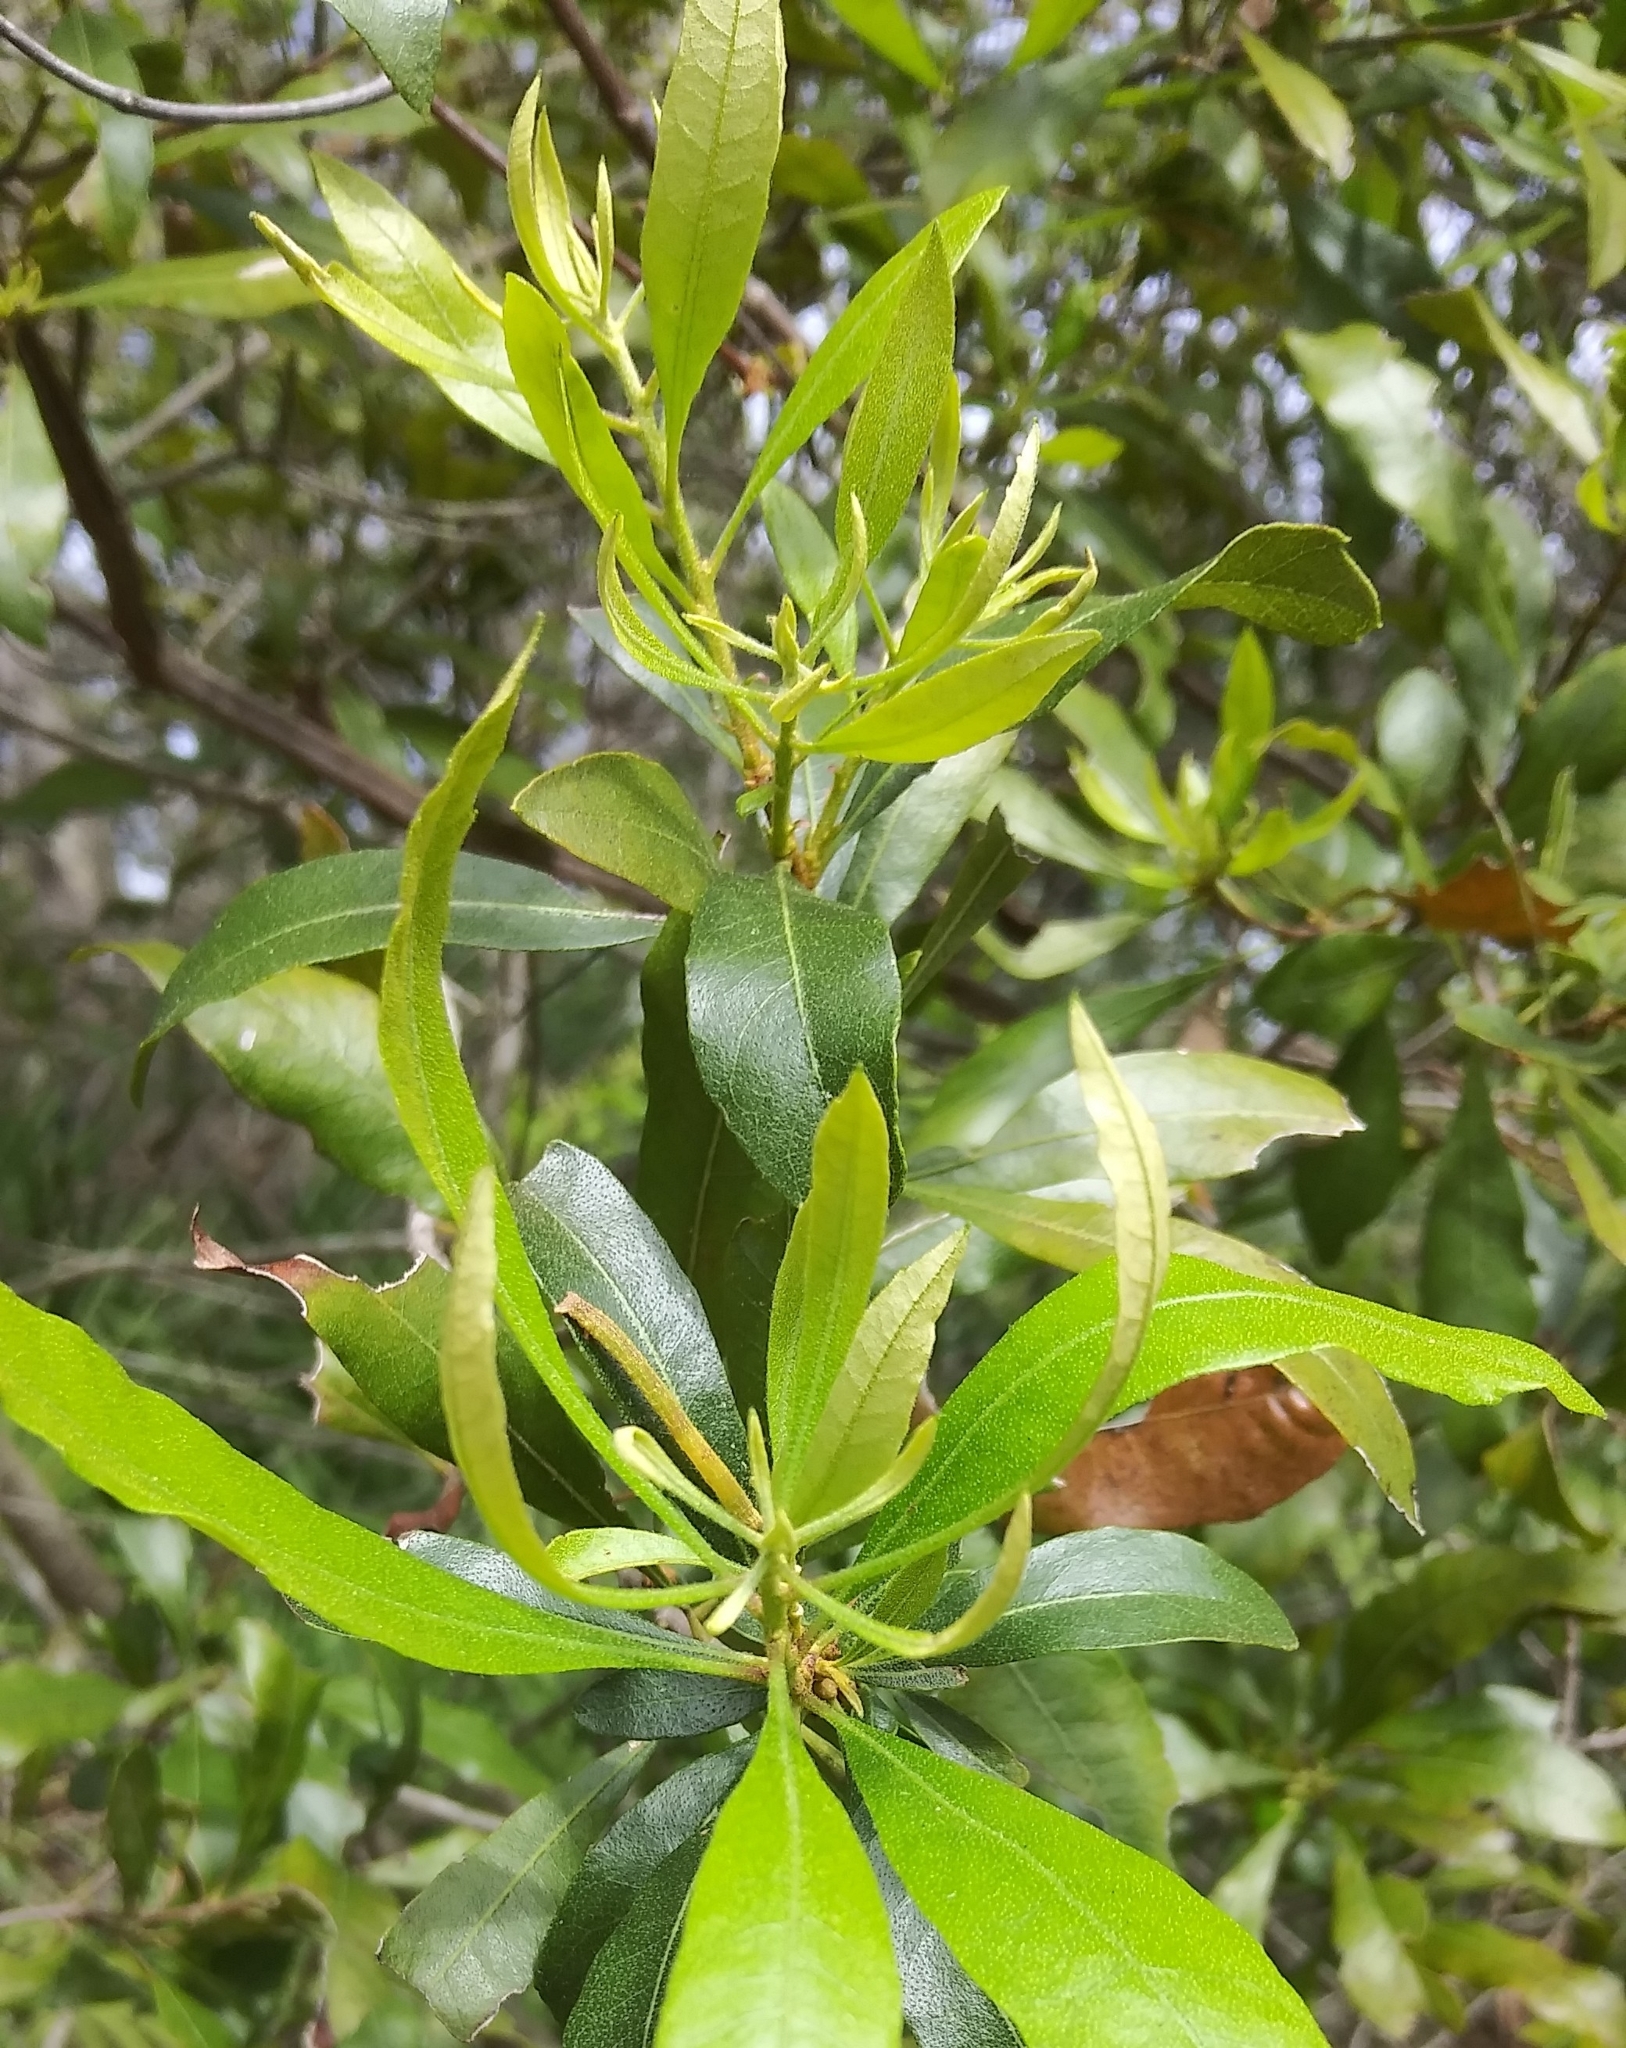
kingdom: Plantae
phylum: Tracheophyta
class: Magnoliopsida
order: Fagales
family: Myricaceae
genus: Morella
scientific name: Morella cerifera
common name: Wax myrtle
